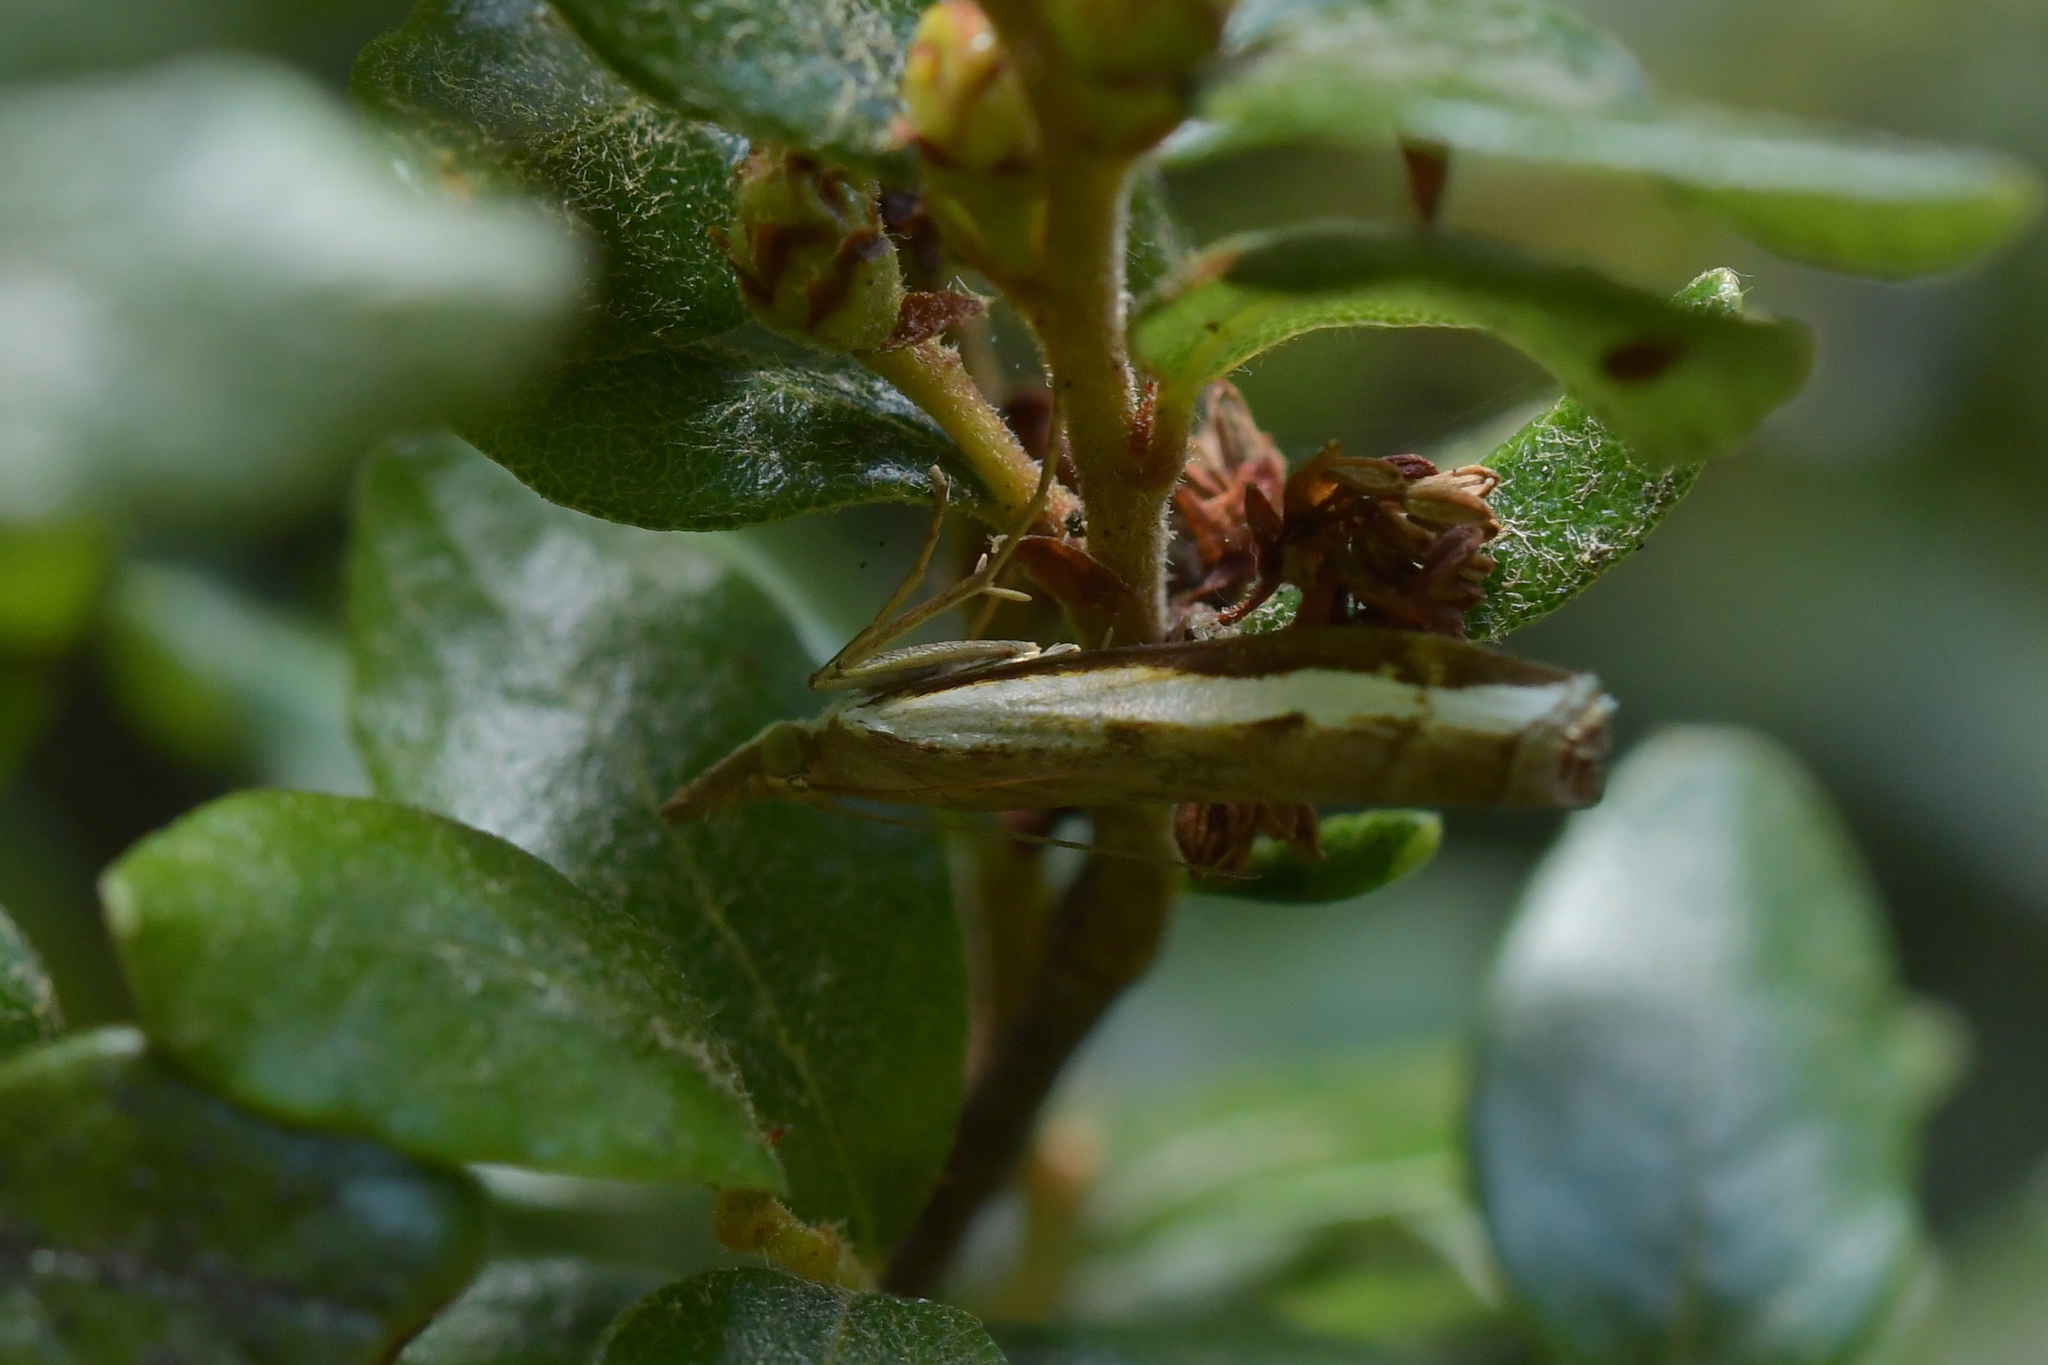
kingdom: Animalia
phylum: Arthropoda
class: Insecta
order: Lepidoptera
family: Crambidae
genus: Orocrambus
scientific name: Orocrambus flexuosellus
